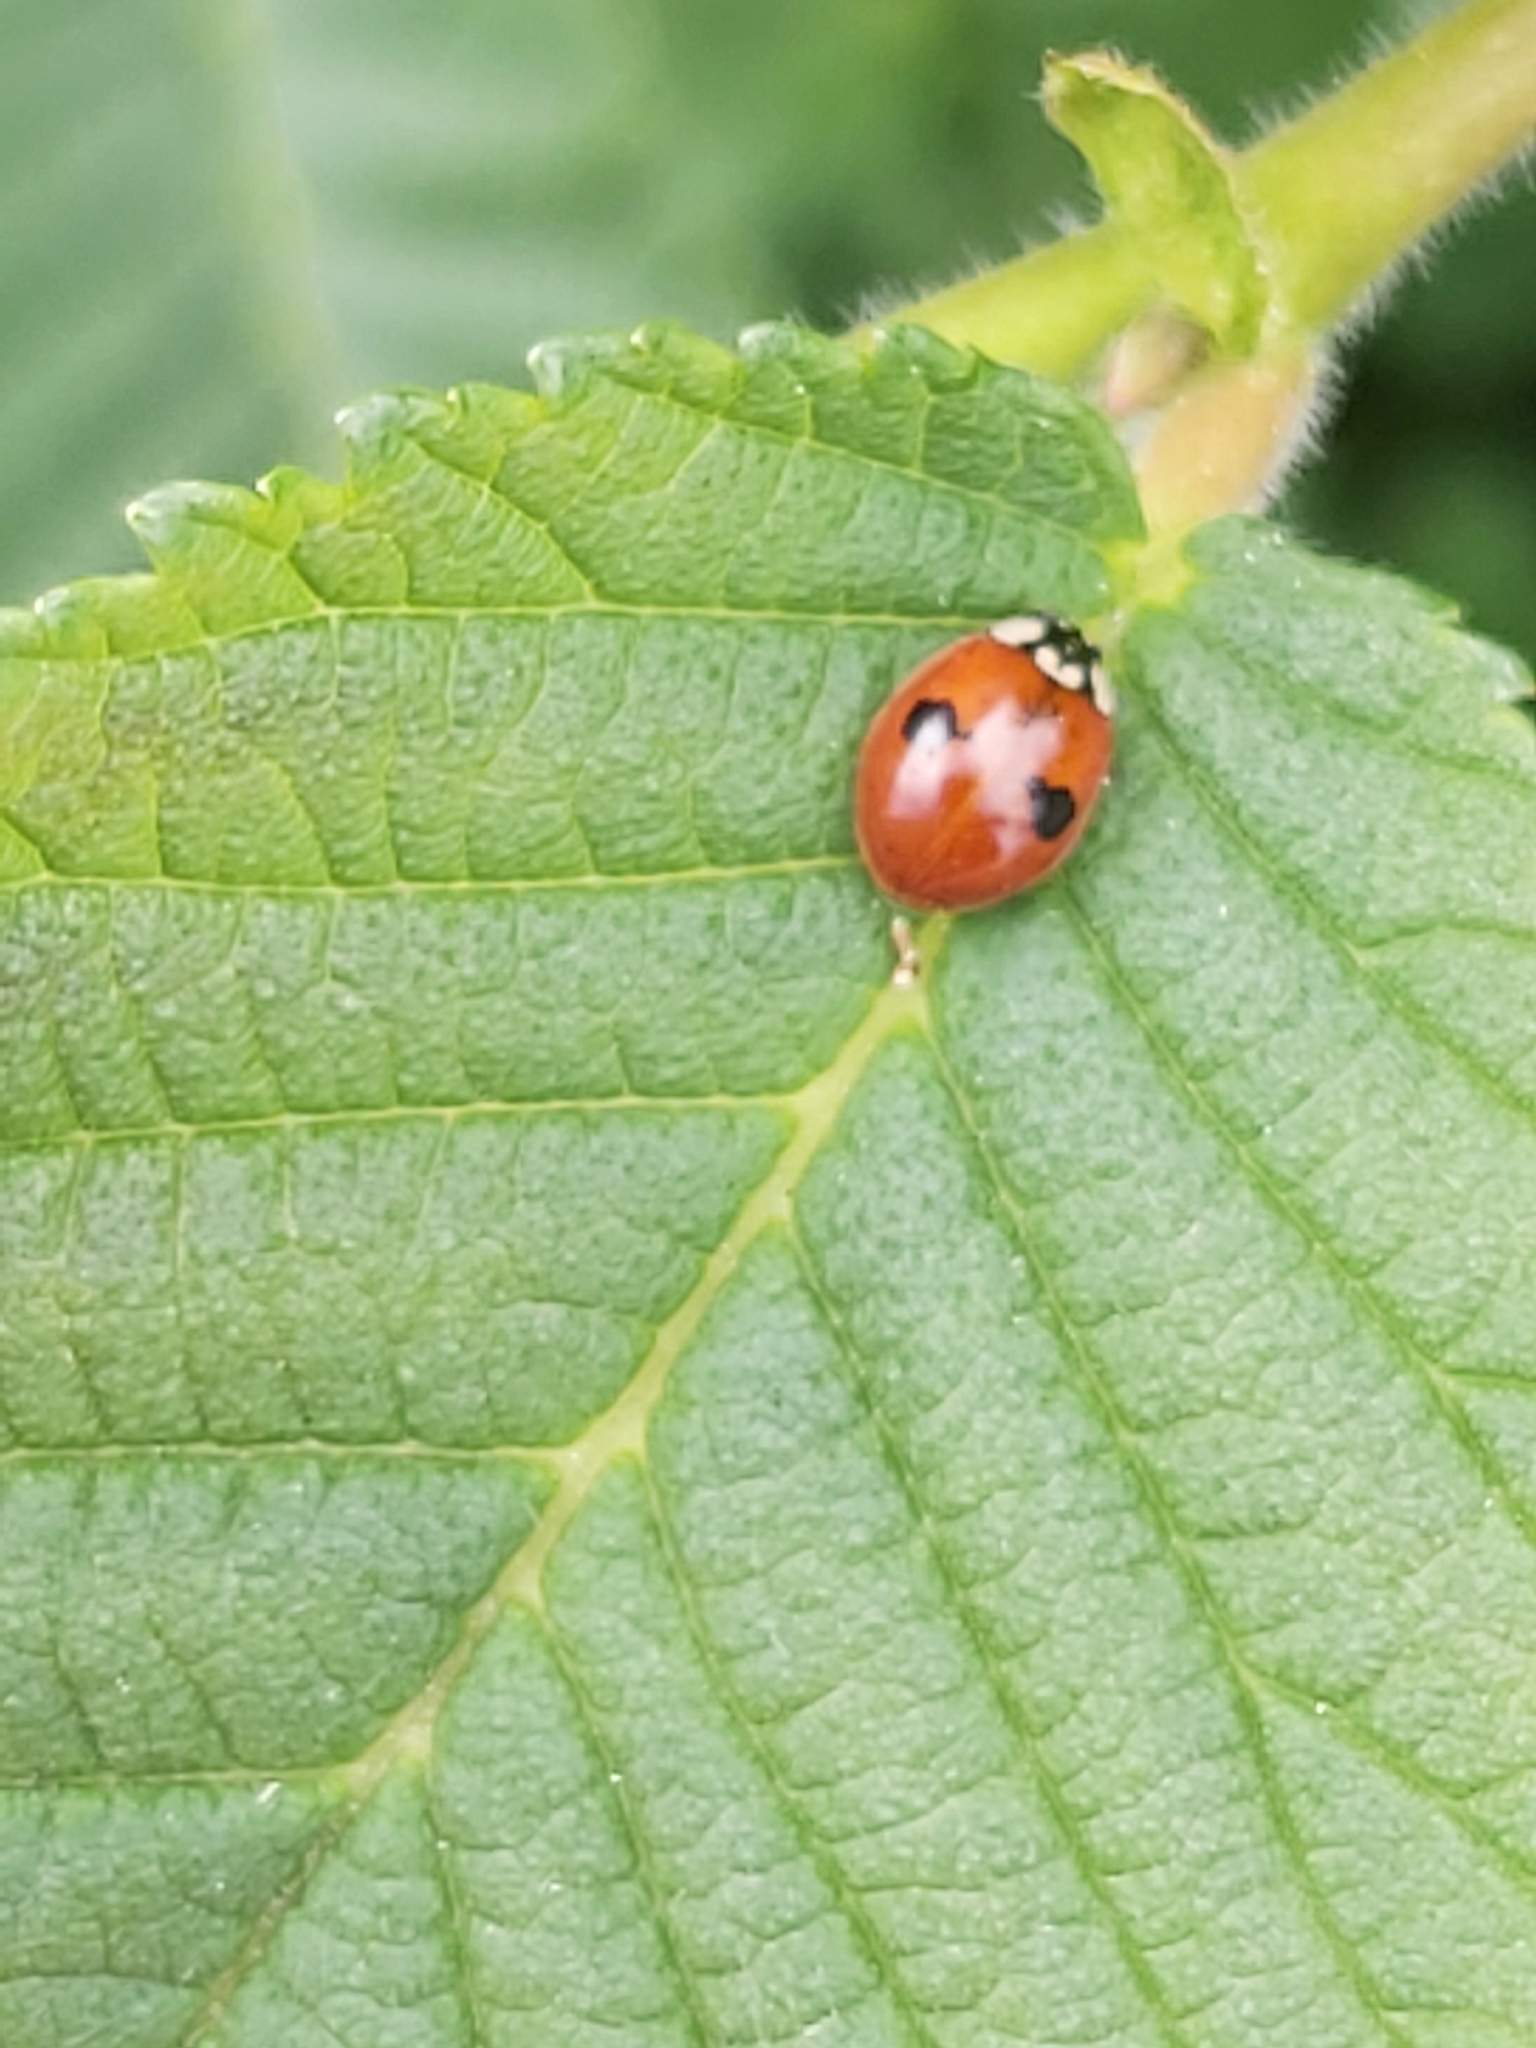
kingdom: Animalia
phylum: Arthropoda
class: Insecta
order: Coleoptera
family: Coccinellidae
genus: Adalia
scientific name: Adalia bipunctata
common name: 2-spot ladybird
